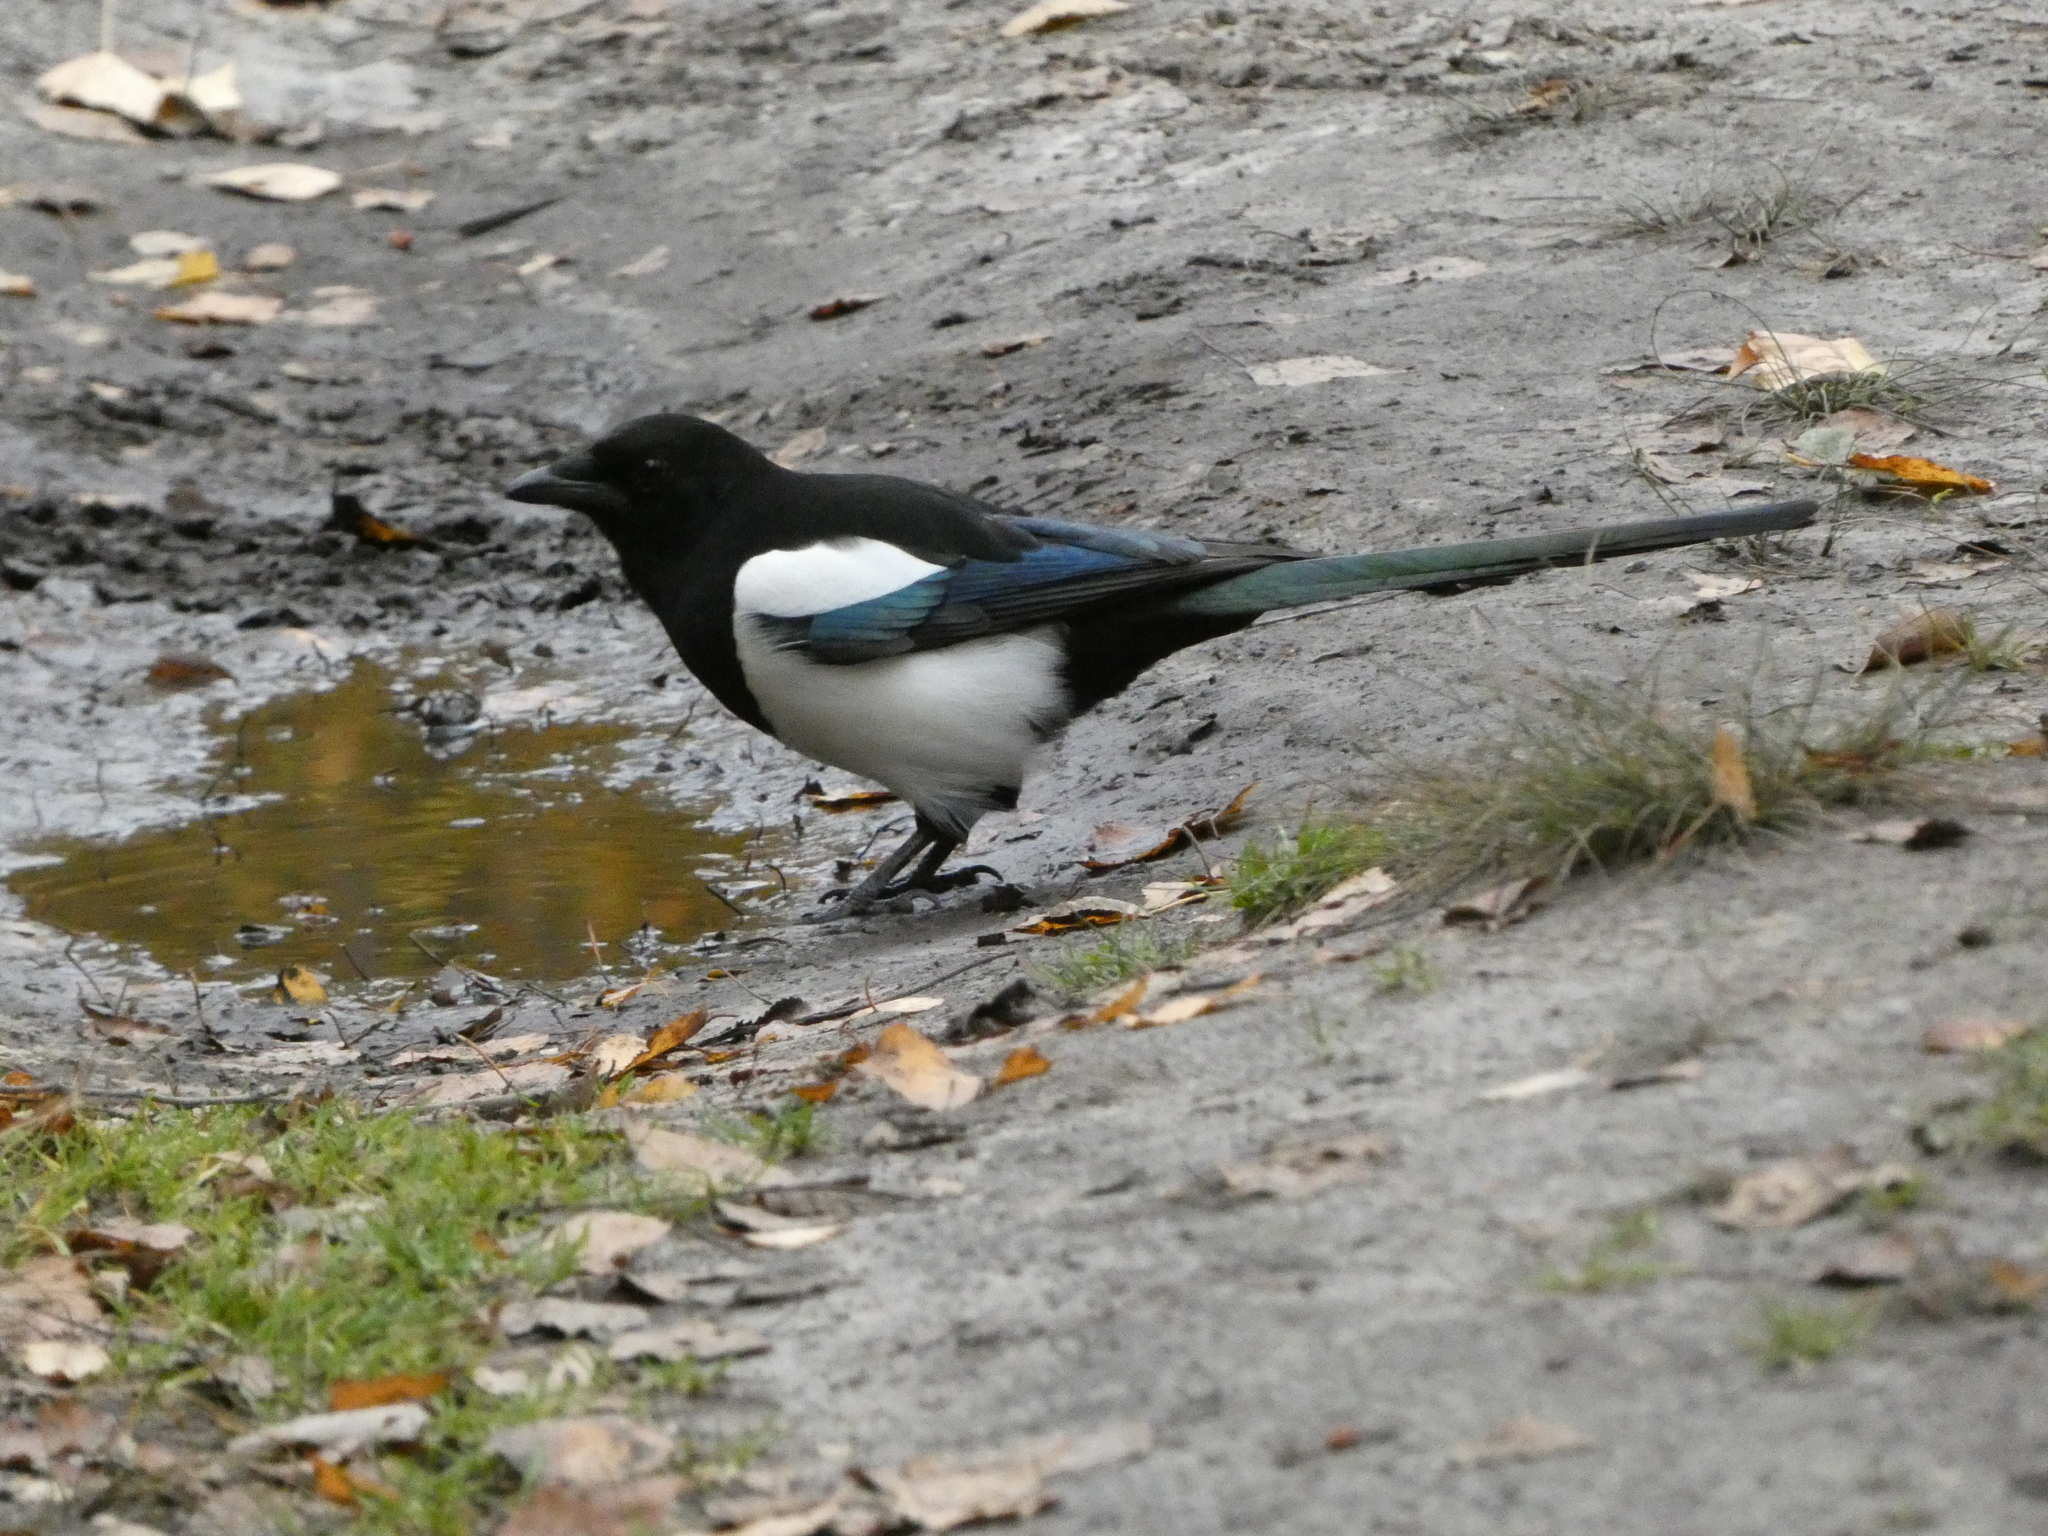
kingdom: Animalia
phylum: Chordata
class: Aves
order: Passeriformes
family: Corvidae
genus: Pica
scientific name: Pica pica
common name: Eurasian magpie
